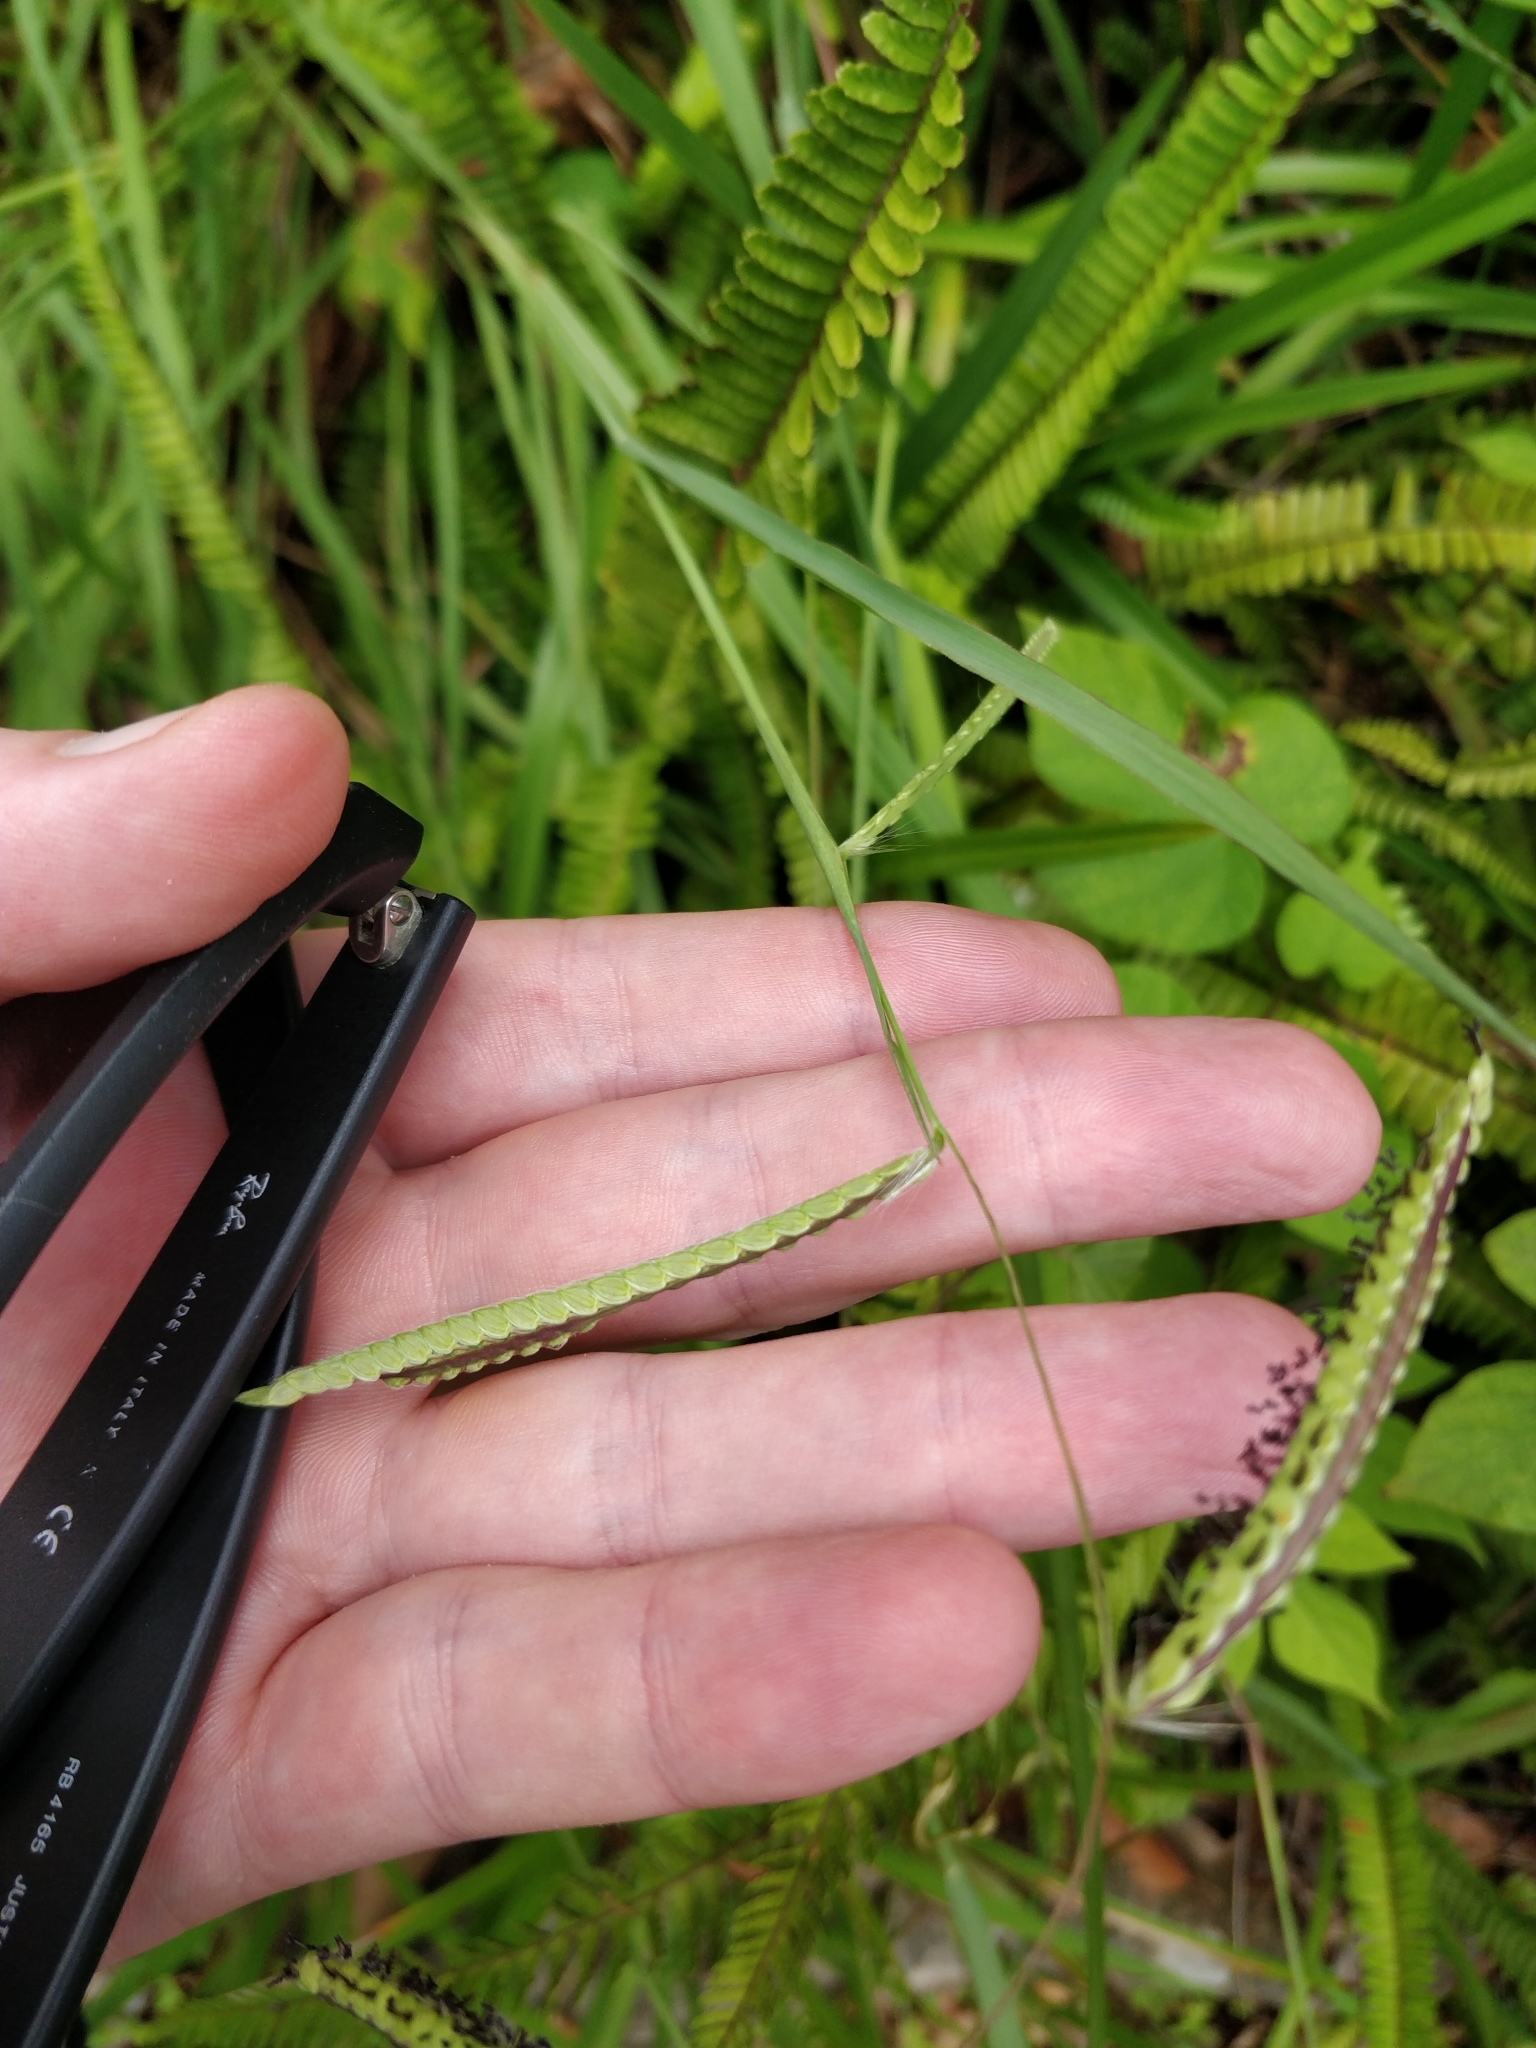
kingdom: Plantae
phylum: Tracheophyta
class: Liliopsida
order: Poales
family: Poaceae
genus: Paspalum
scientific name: Paspalum dilatatum
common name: Dallisgrass
